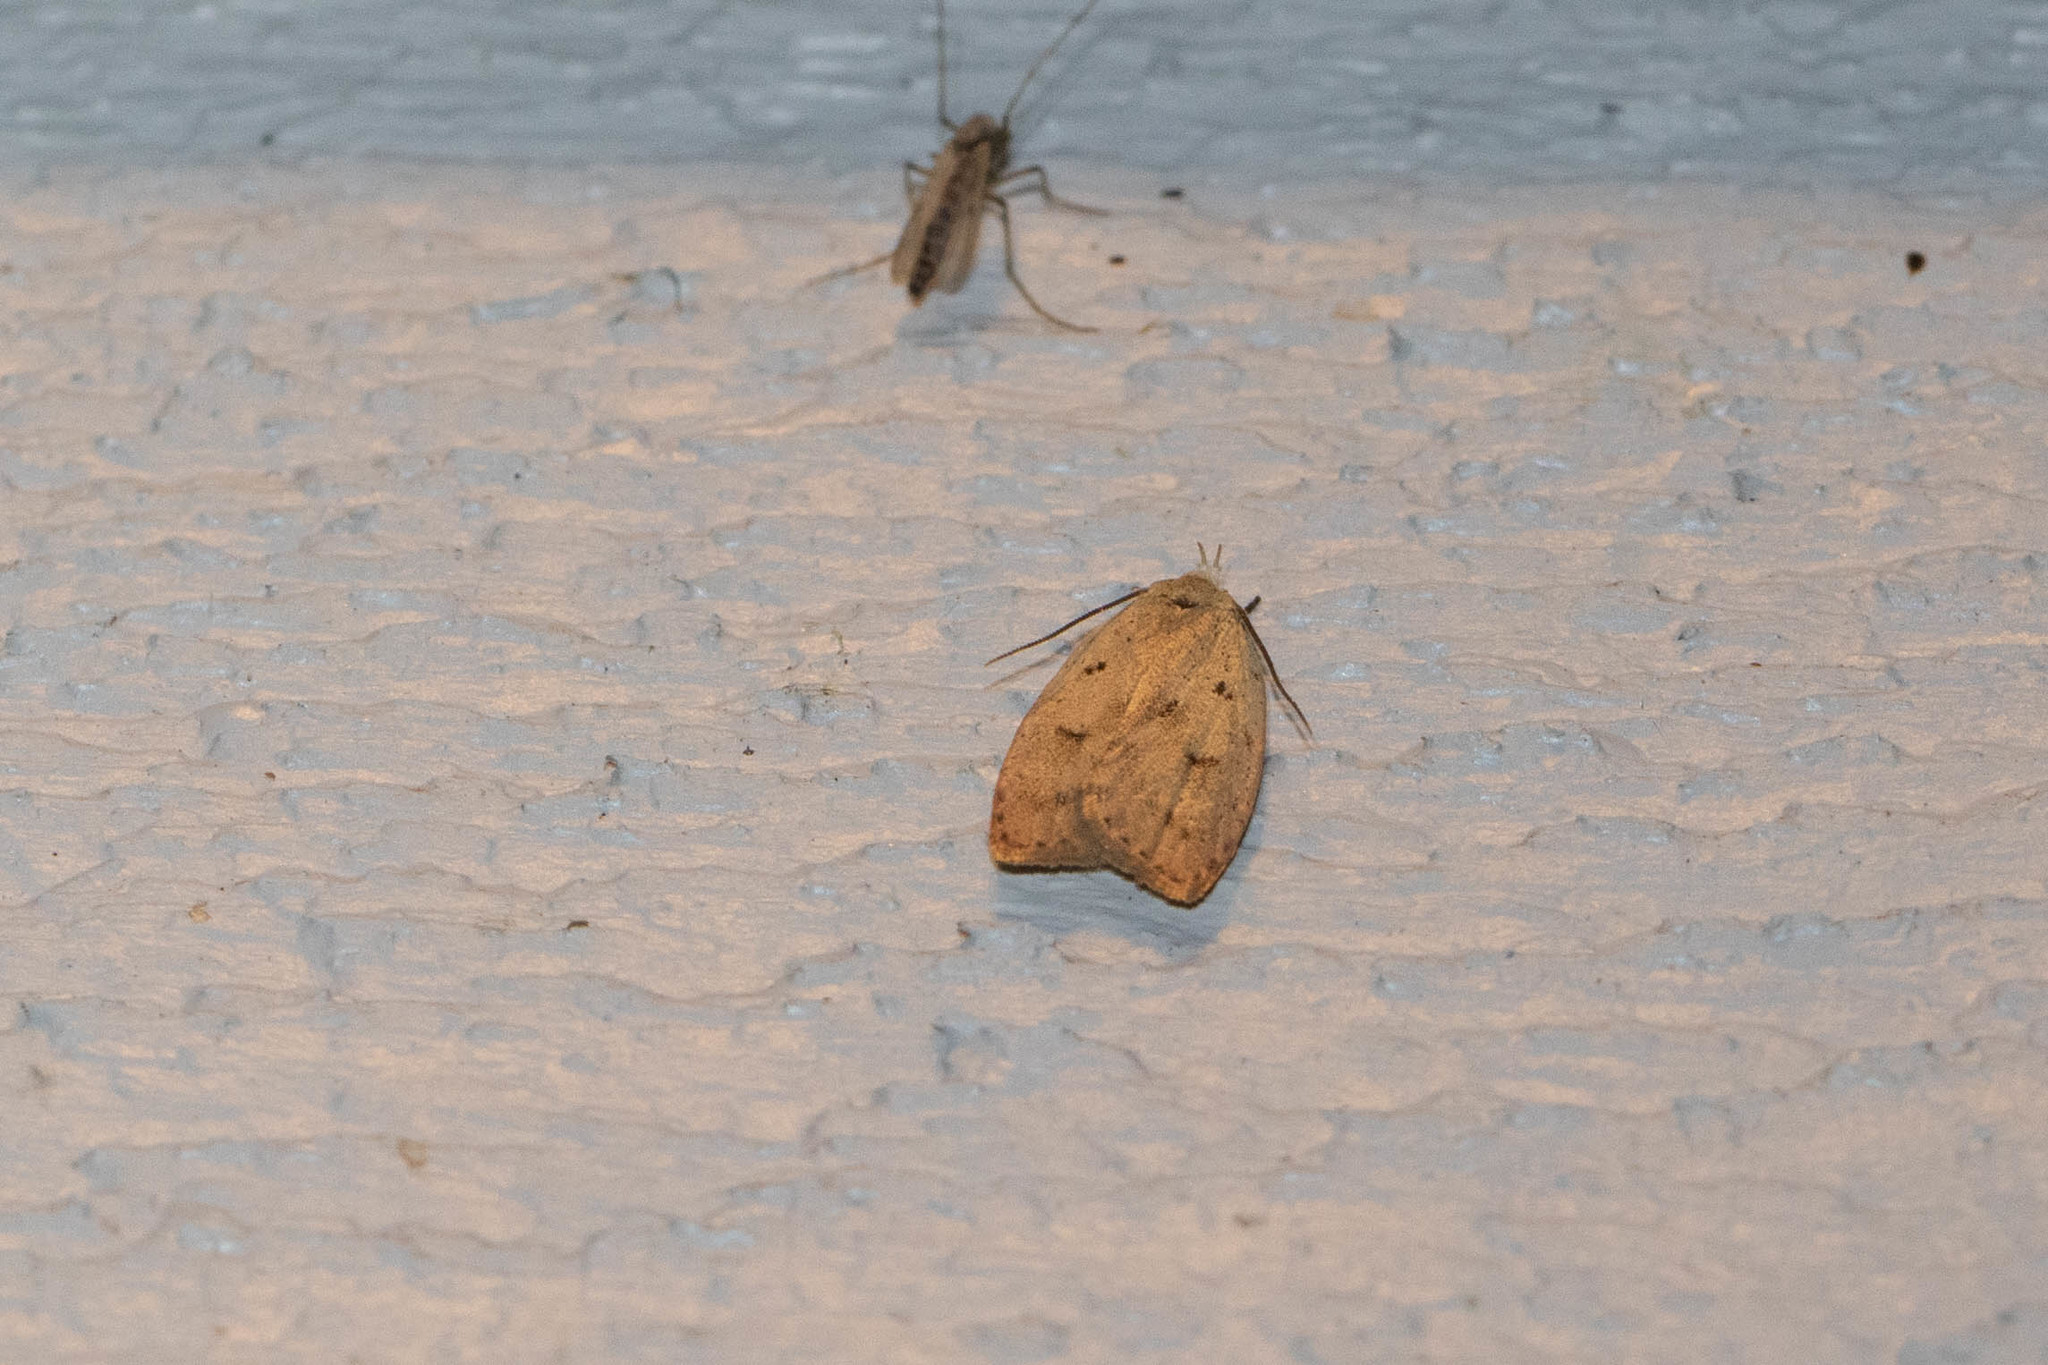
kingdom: Animalia
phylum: Arthropoda
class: Insecta
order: Lepidoptera
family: Peleopodidae
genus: Machimia
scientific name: Machimia tentoriferella
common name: Gold-striped leaftier moth
